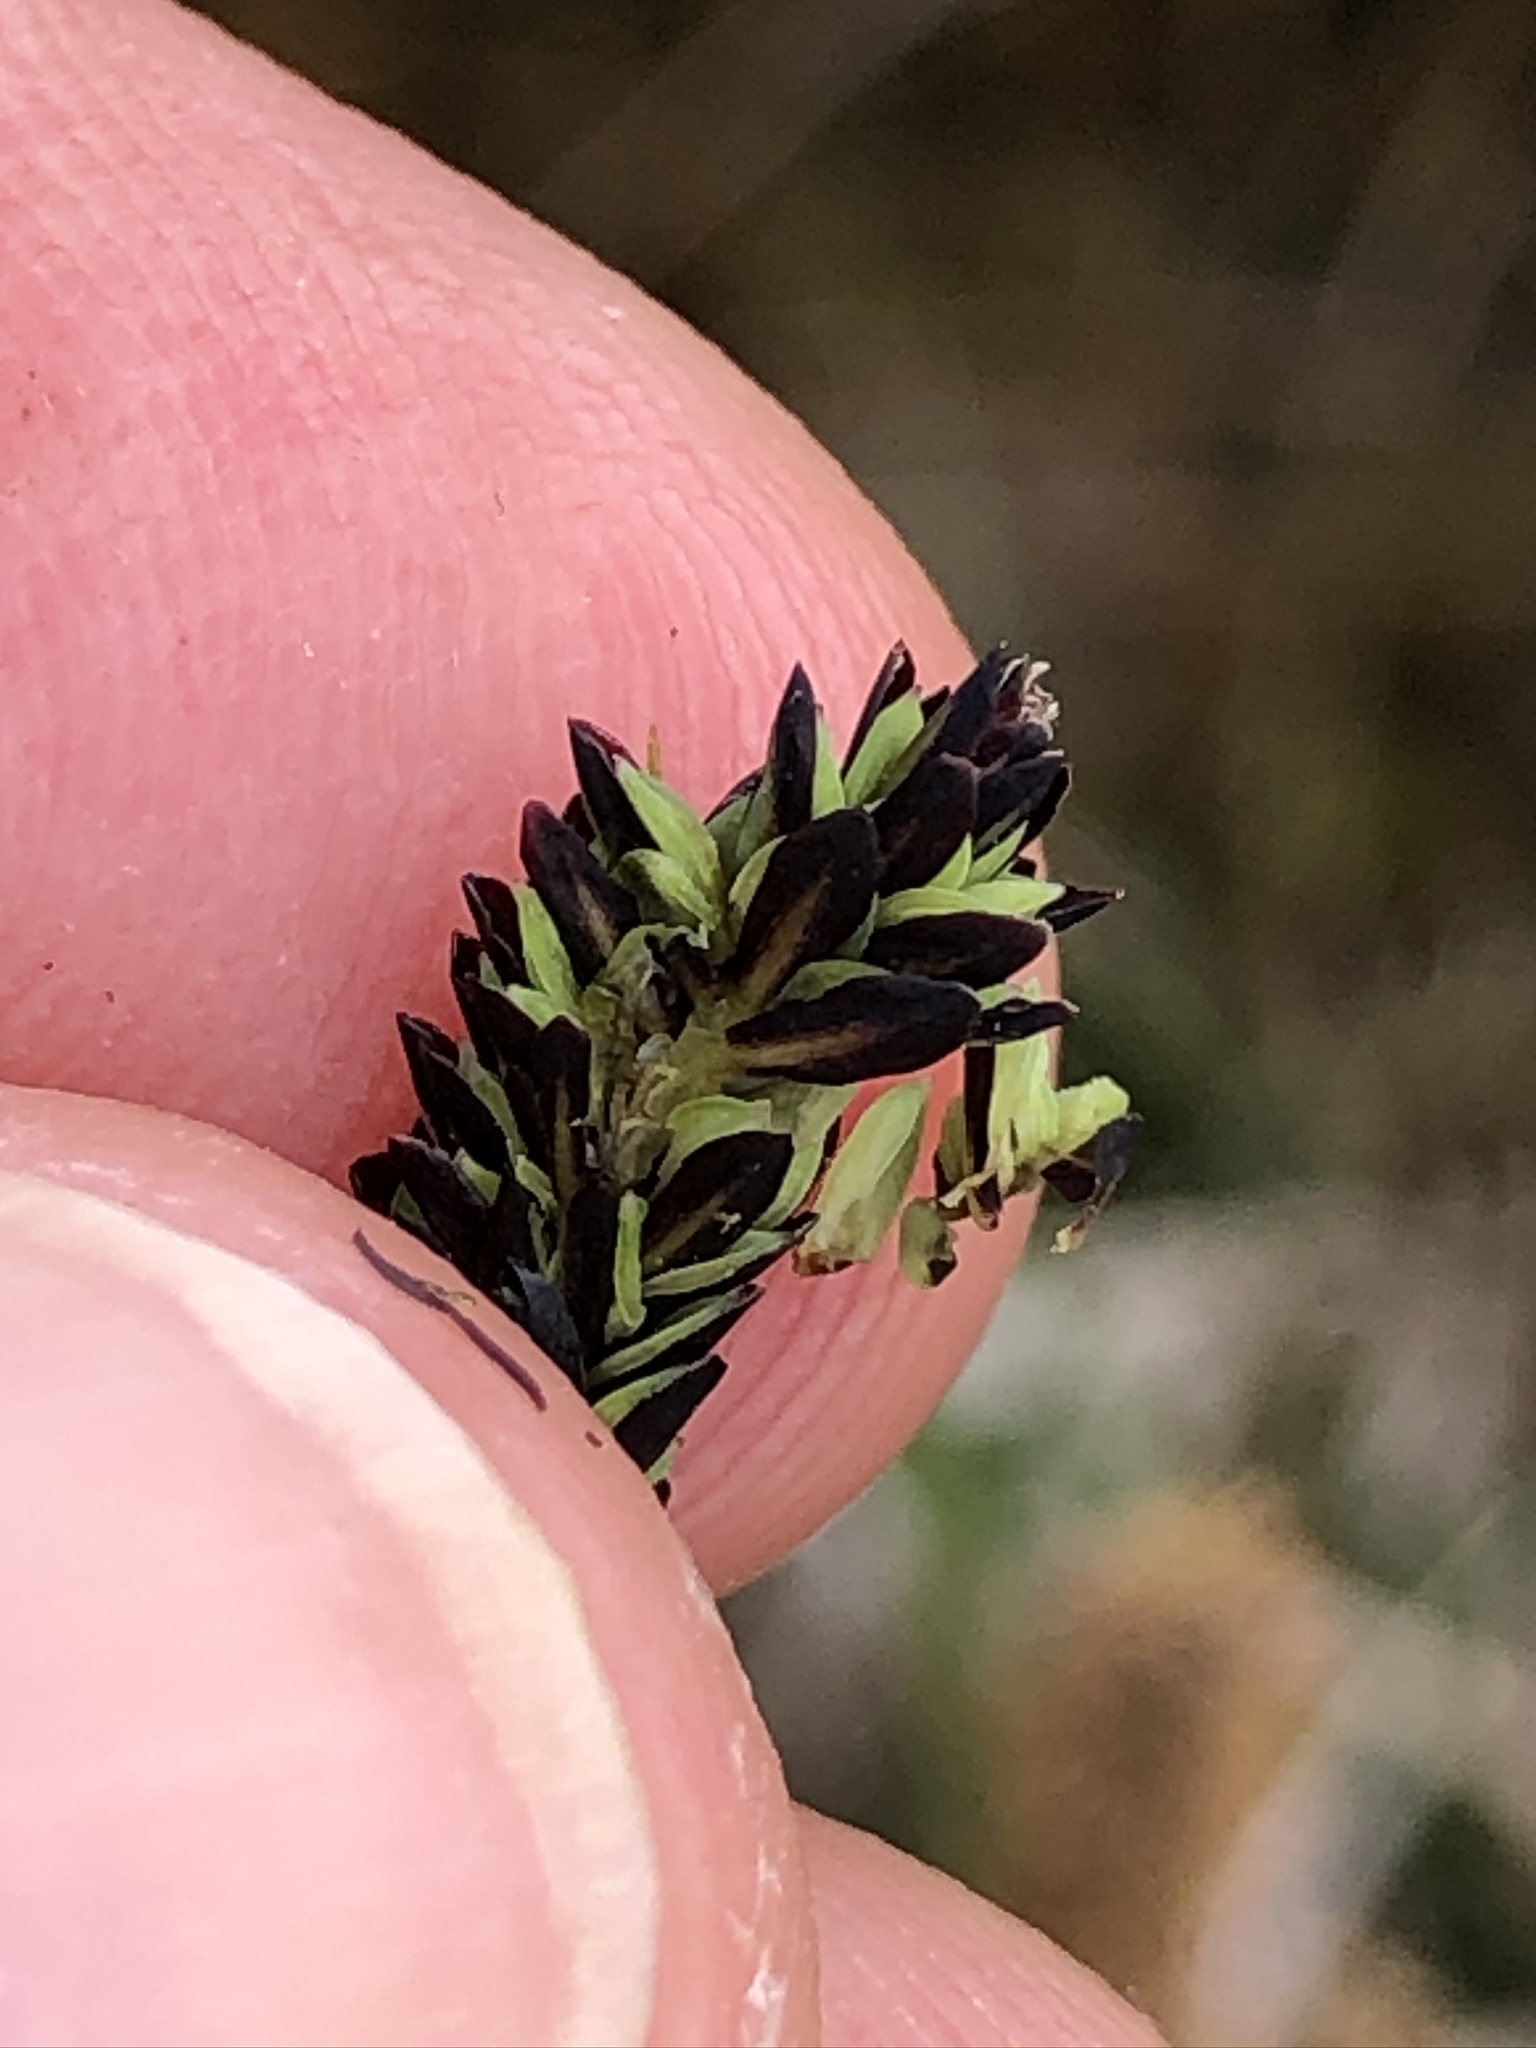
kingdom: Plantae
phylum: Tracheophyta
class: Liliopsida
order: Poales
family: Cyperaceae
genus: Carex
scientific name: Carex nigra
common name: Common sedge
